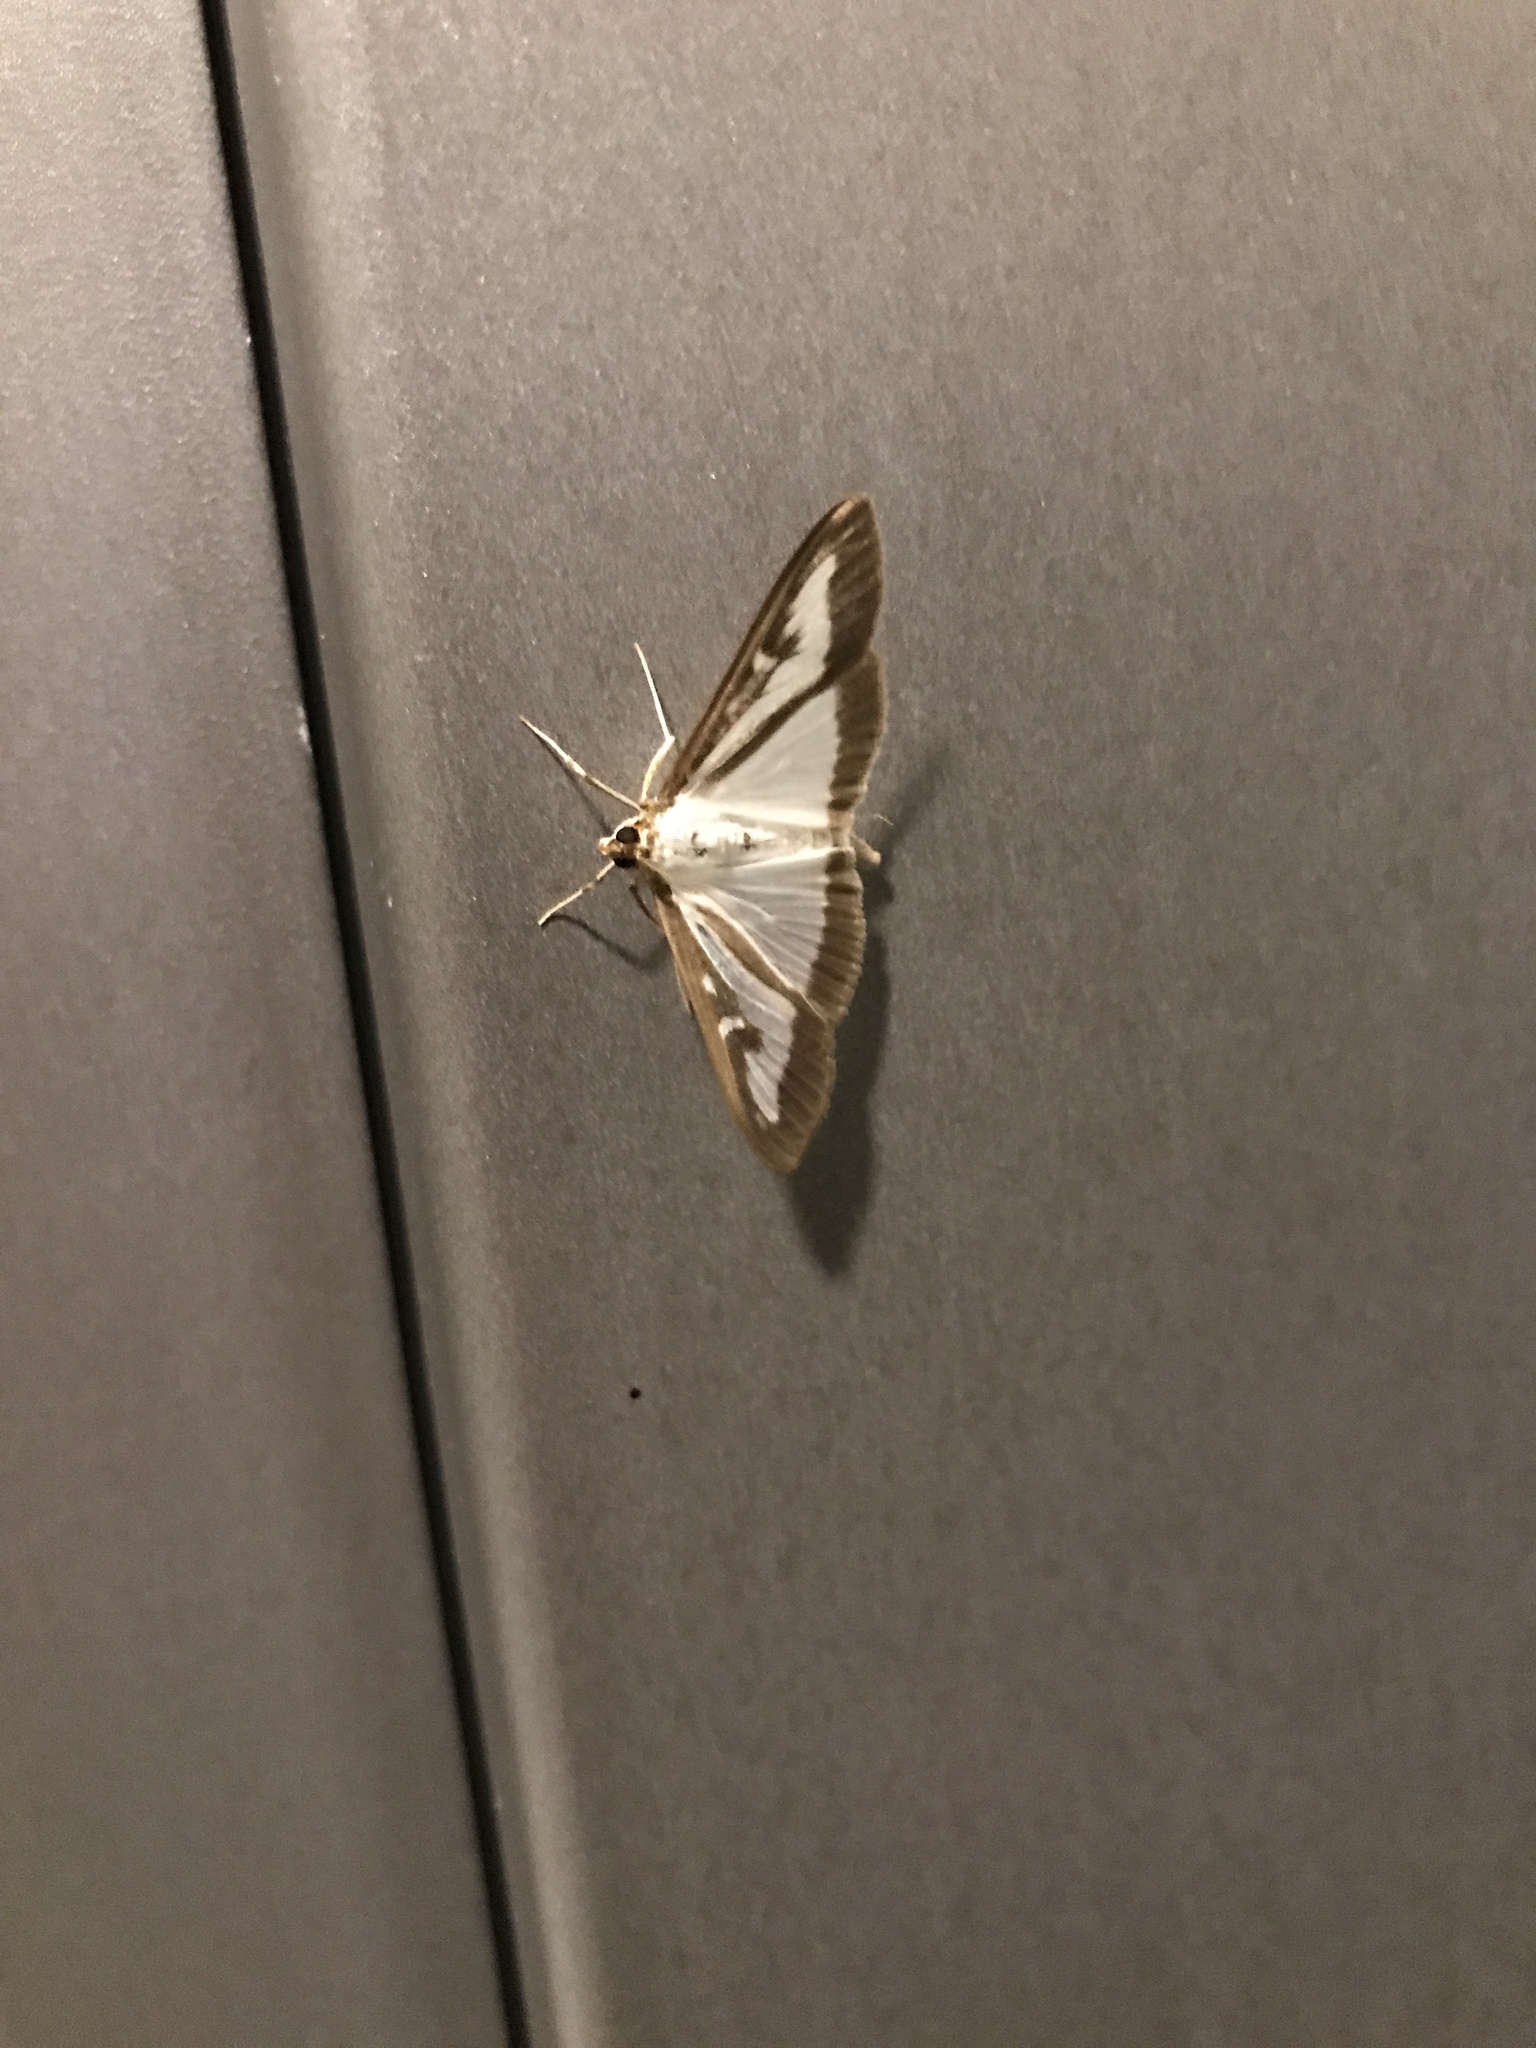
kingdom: Animalia
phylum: Arthropoda
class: Insecta
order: Lepidoptera
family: Crambidae
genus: Cydalima
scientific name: Cydalima perspectalis
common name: Box tree moth
